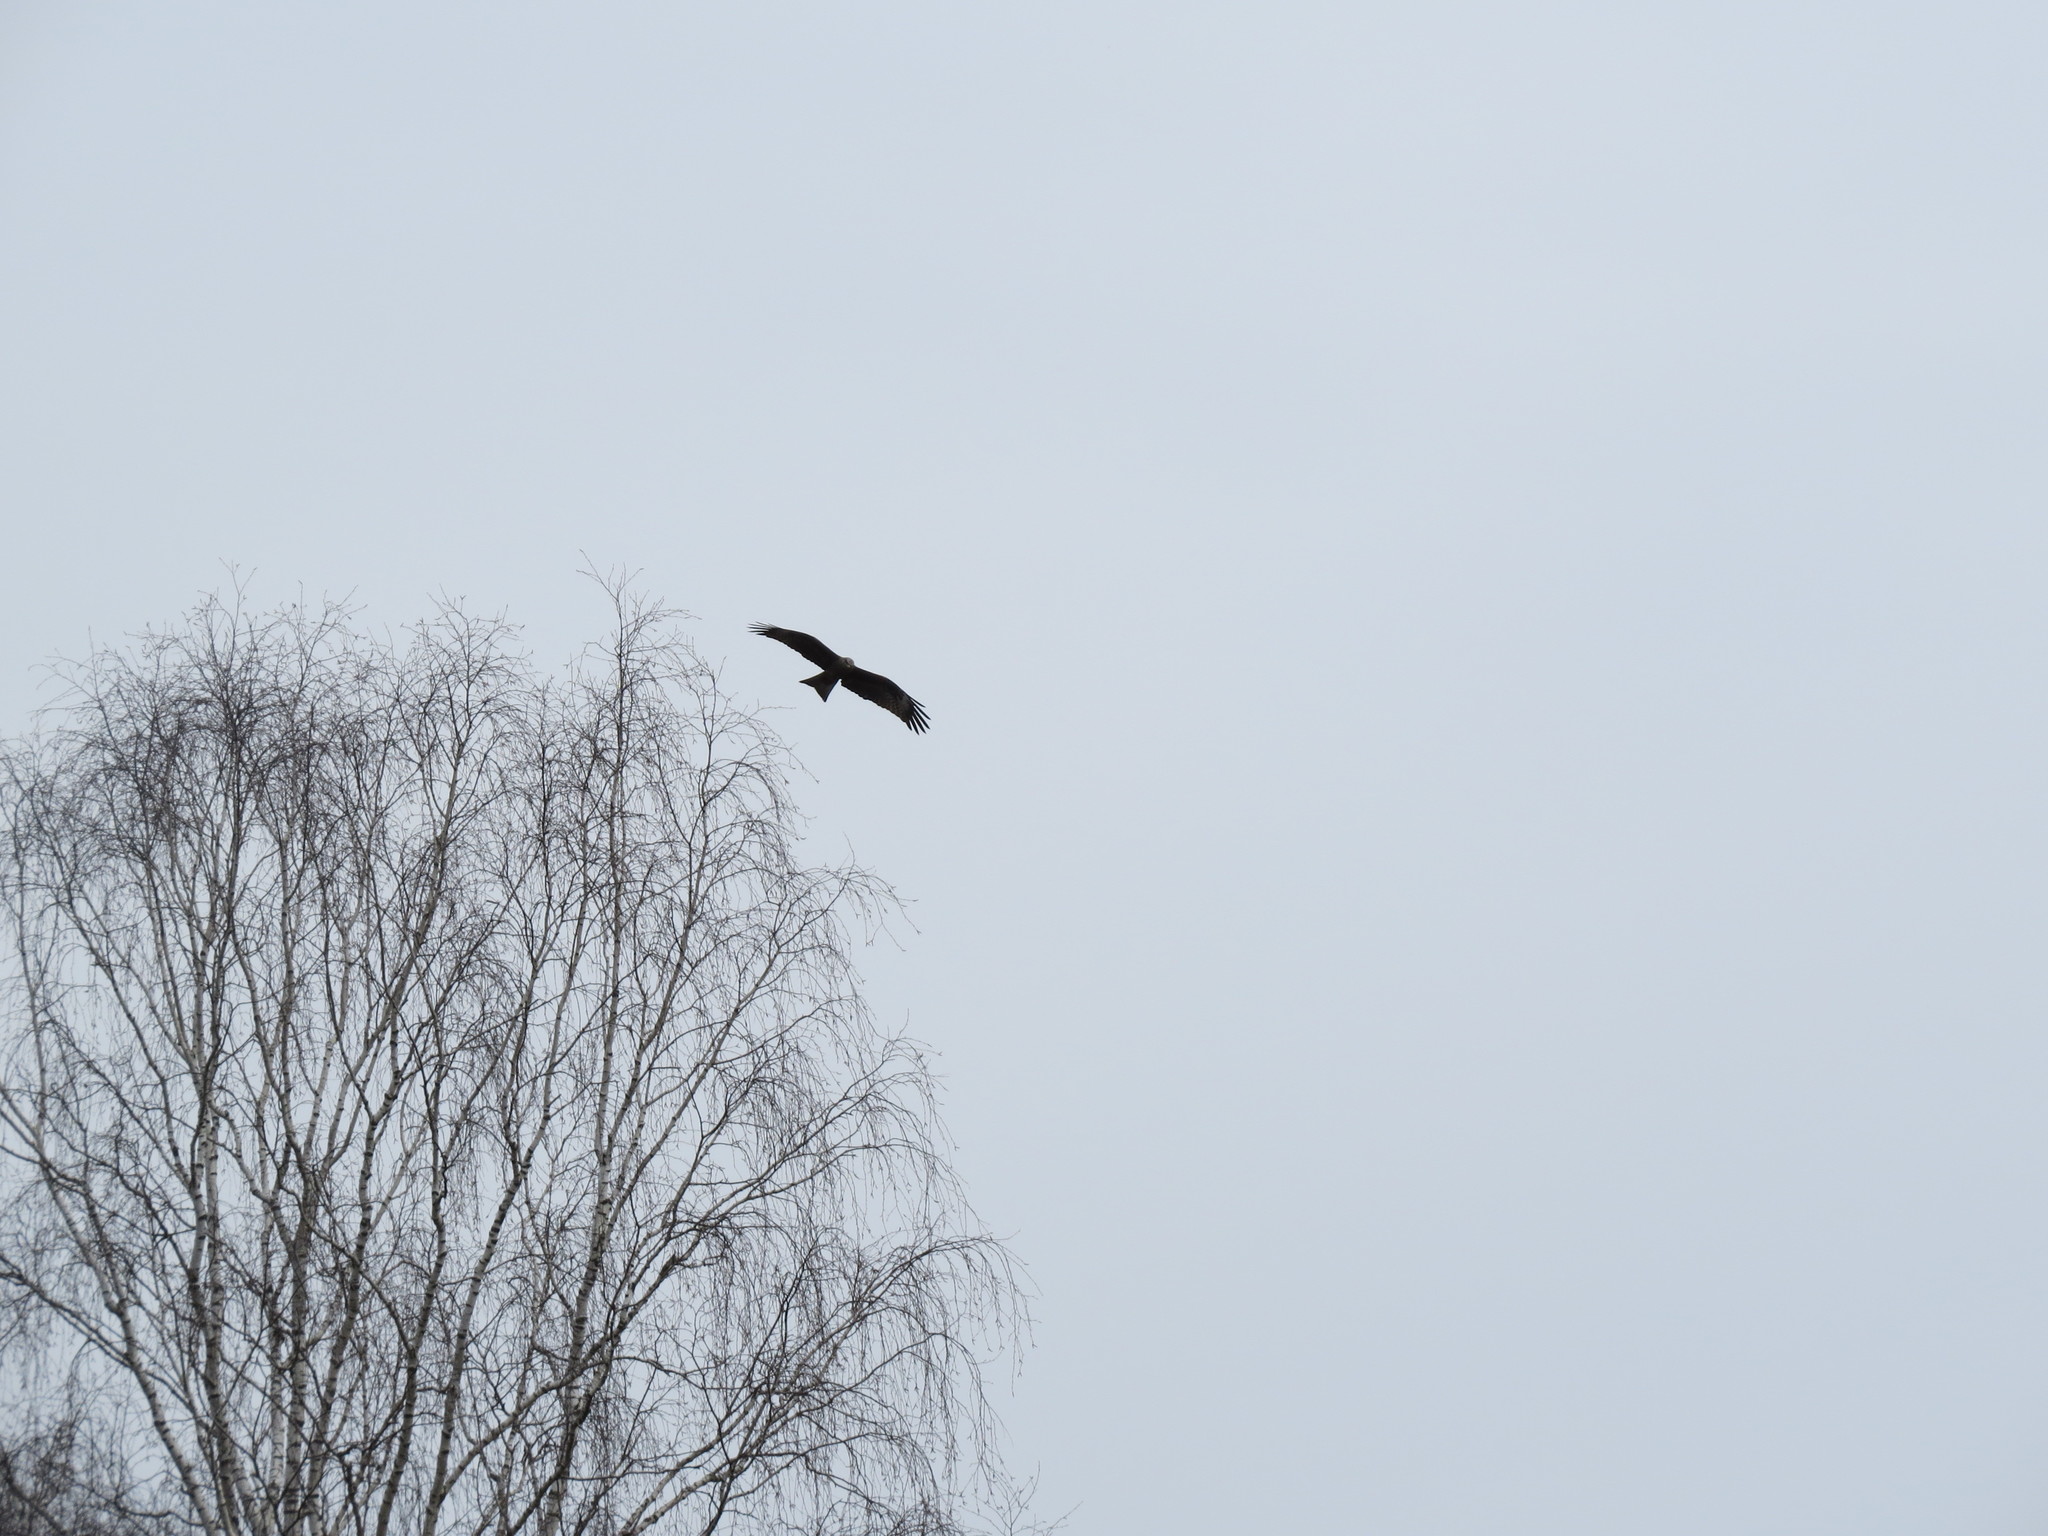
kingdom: Animalia
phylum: Chordata
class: Aves
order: Accipitriformes
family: Accipitridae
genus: Milvus
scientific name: Milvus migrans
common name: Black kite
